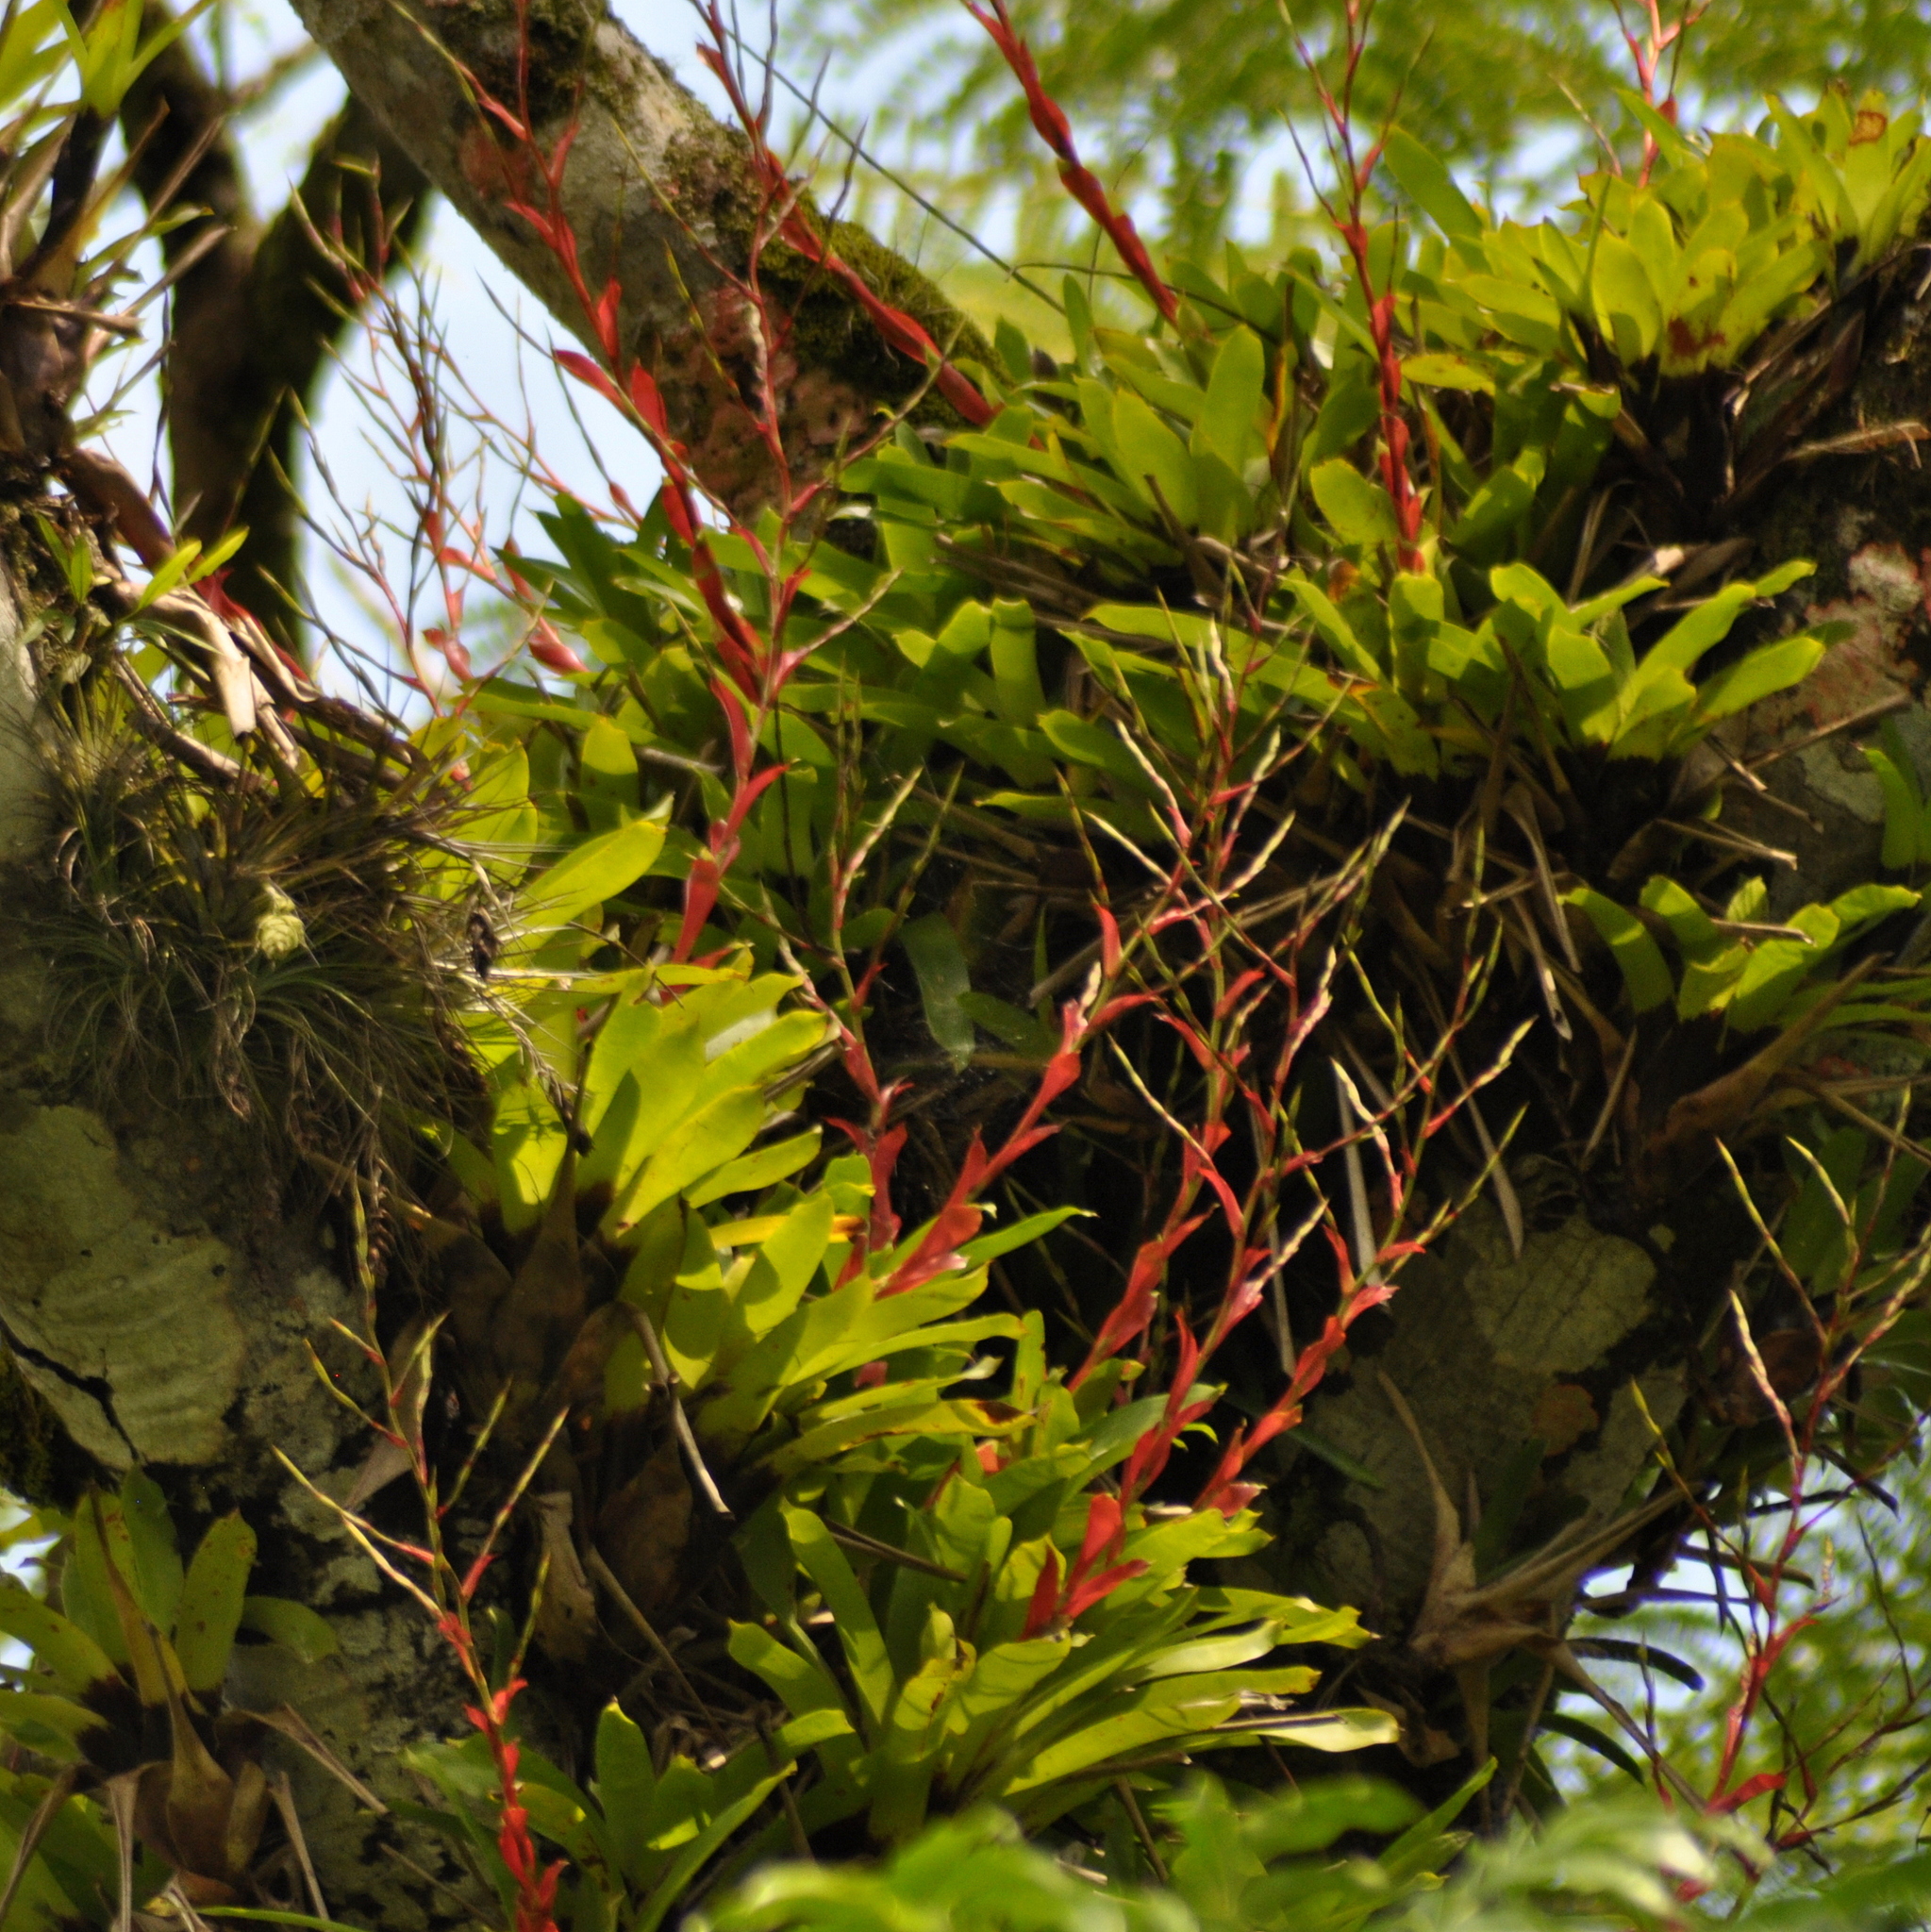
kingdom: Plantae
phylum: Tracheophyta
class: Liliopsida
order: Poales
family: Bromeliaceae
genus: Vriesea
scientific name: Vriesea vagans
